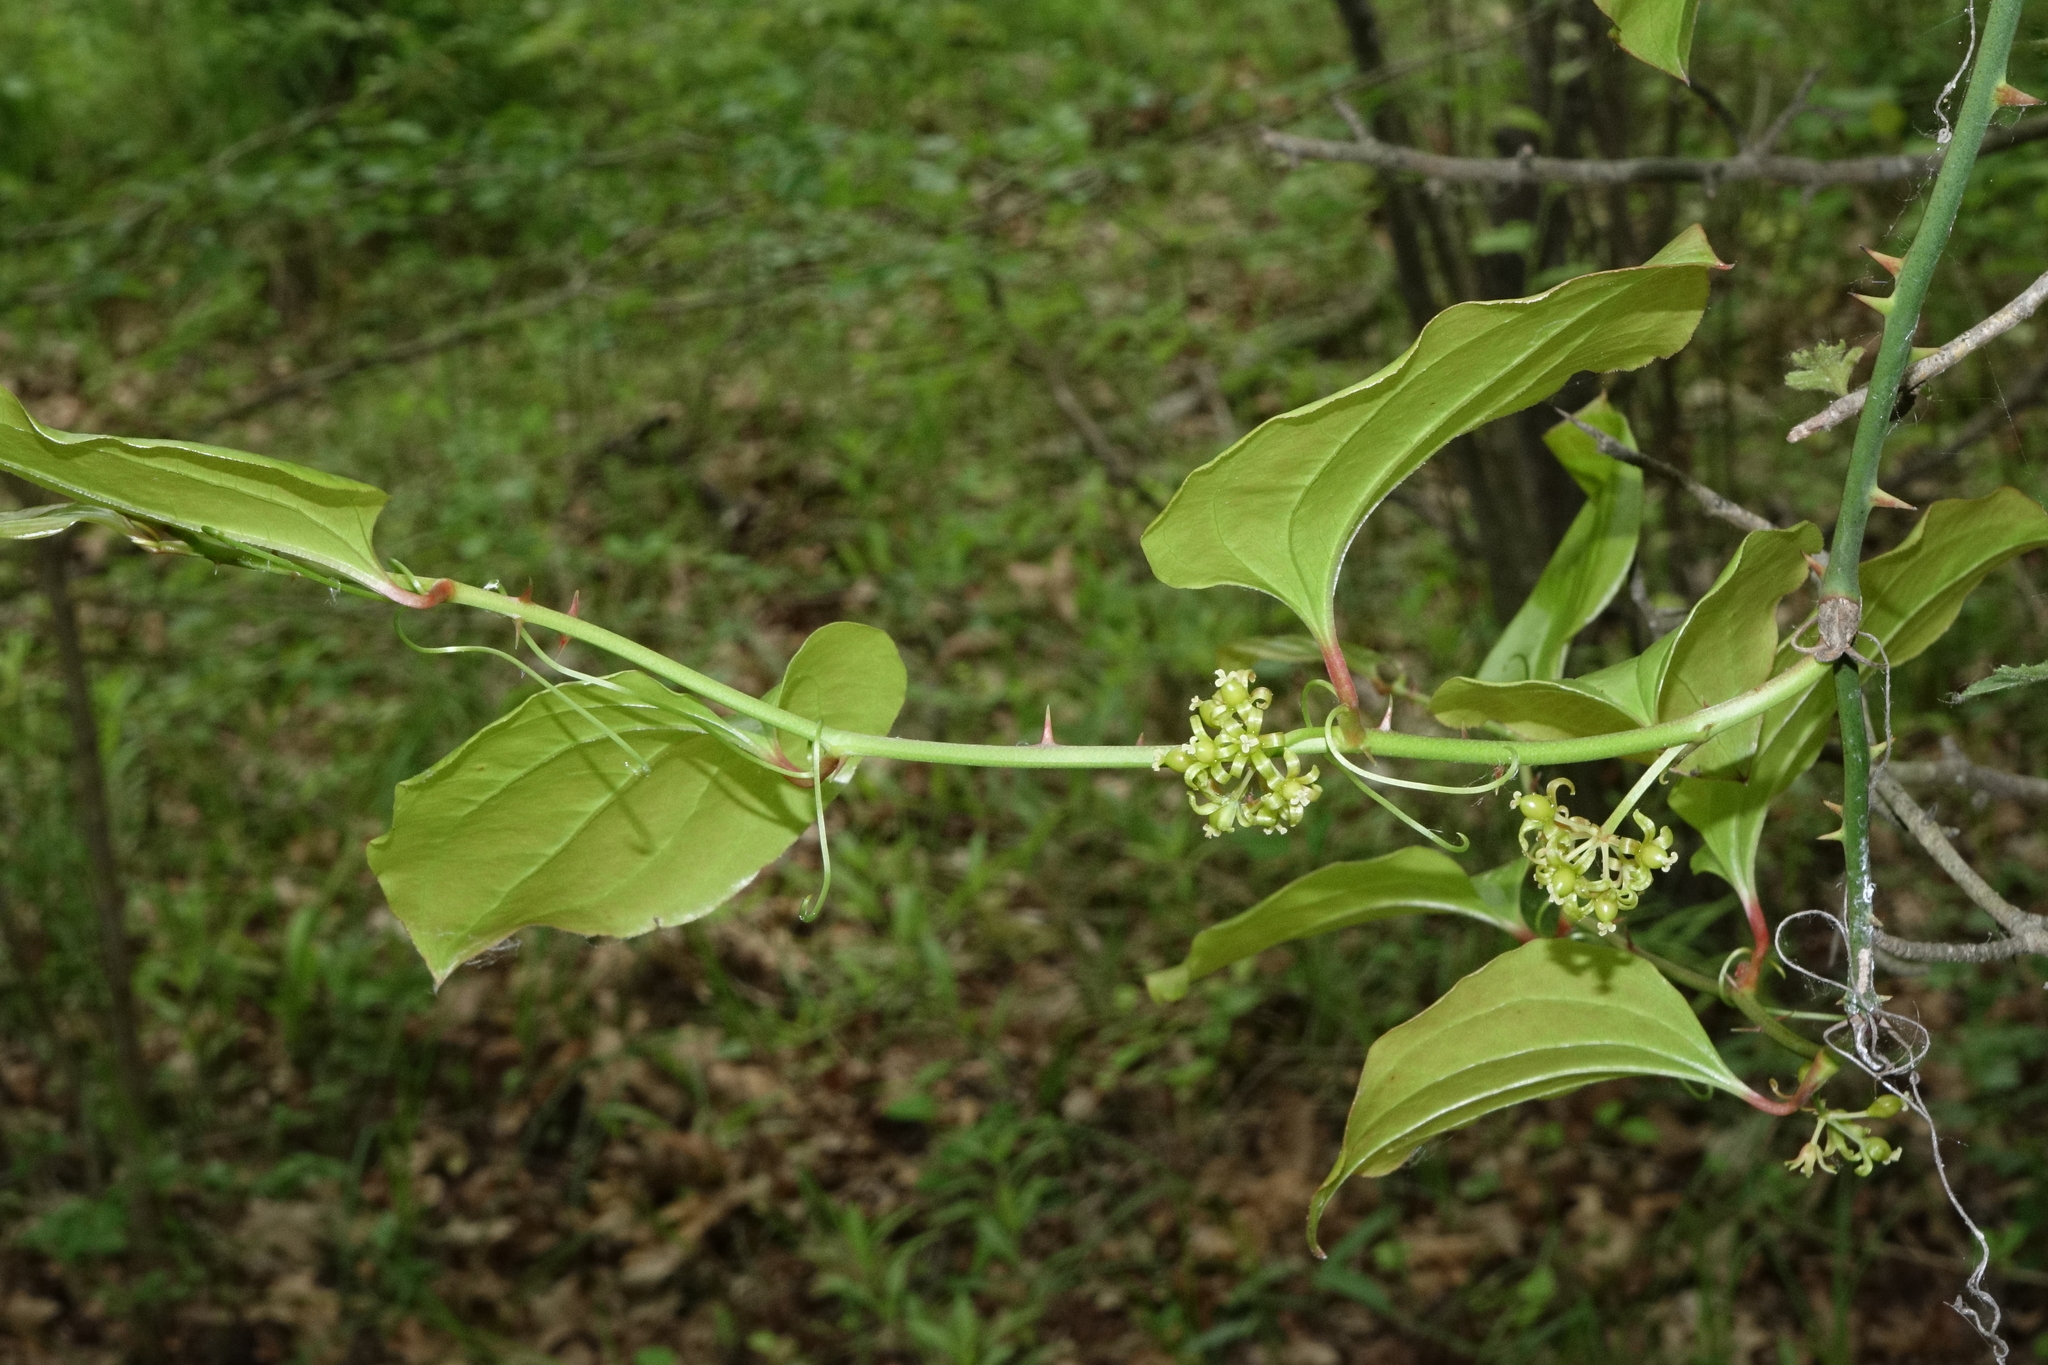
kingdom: Plantae
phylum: Tracheophyta
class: Liliopsida
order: Liliales
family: Smilacaceae
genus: Smilax
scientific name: Smilax excelsa
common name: Larger smilax
